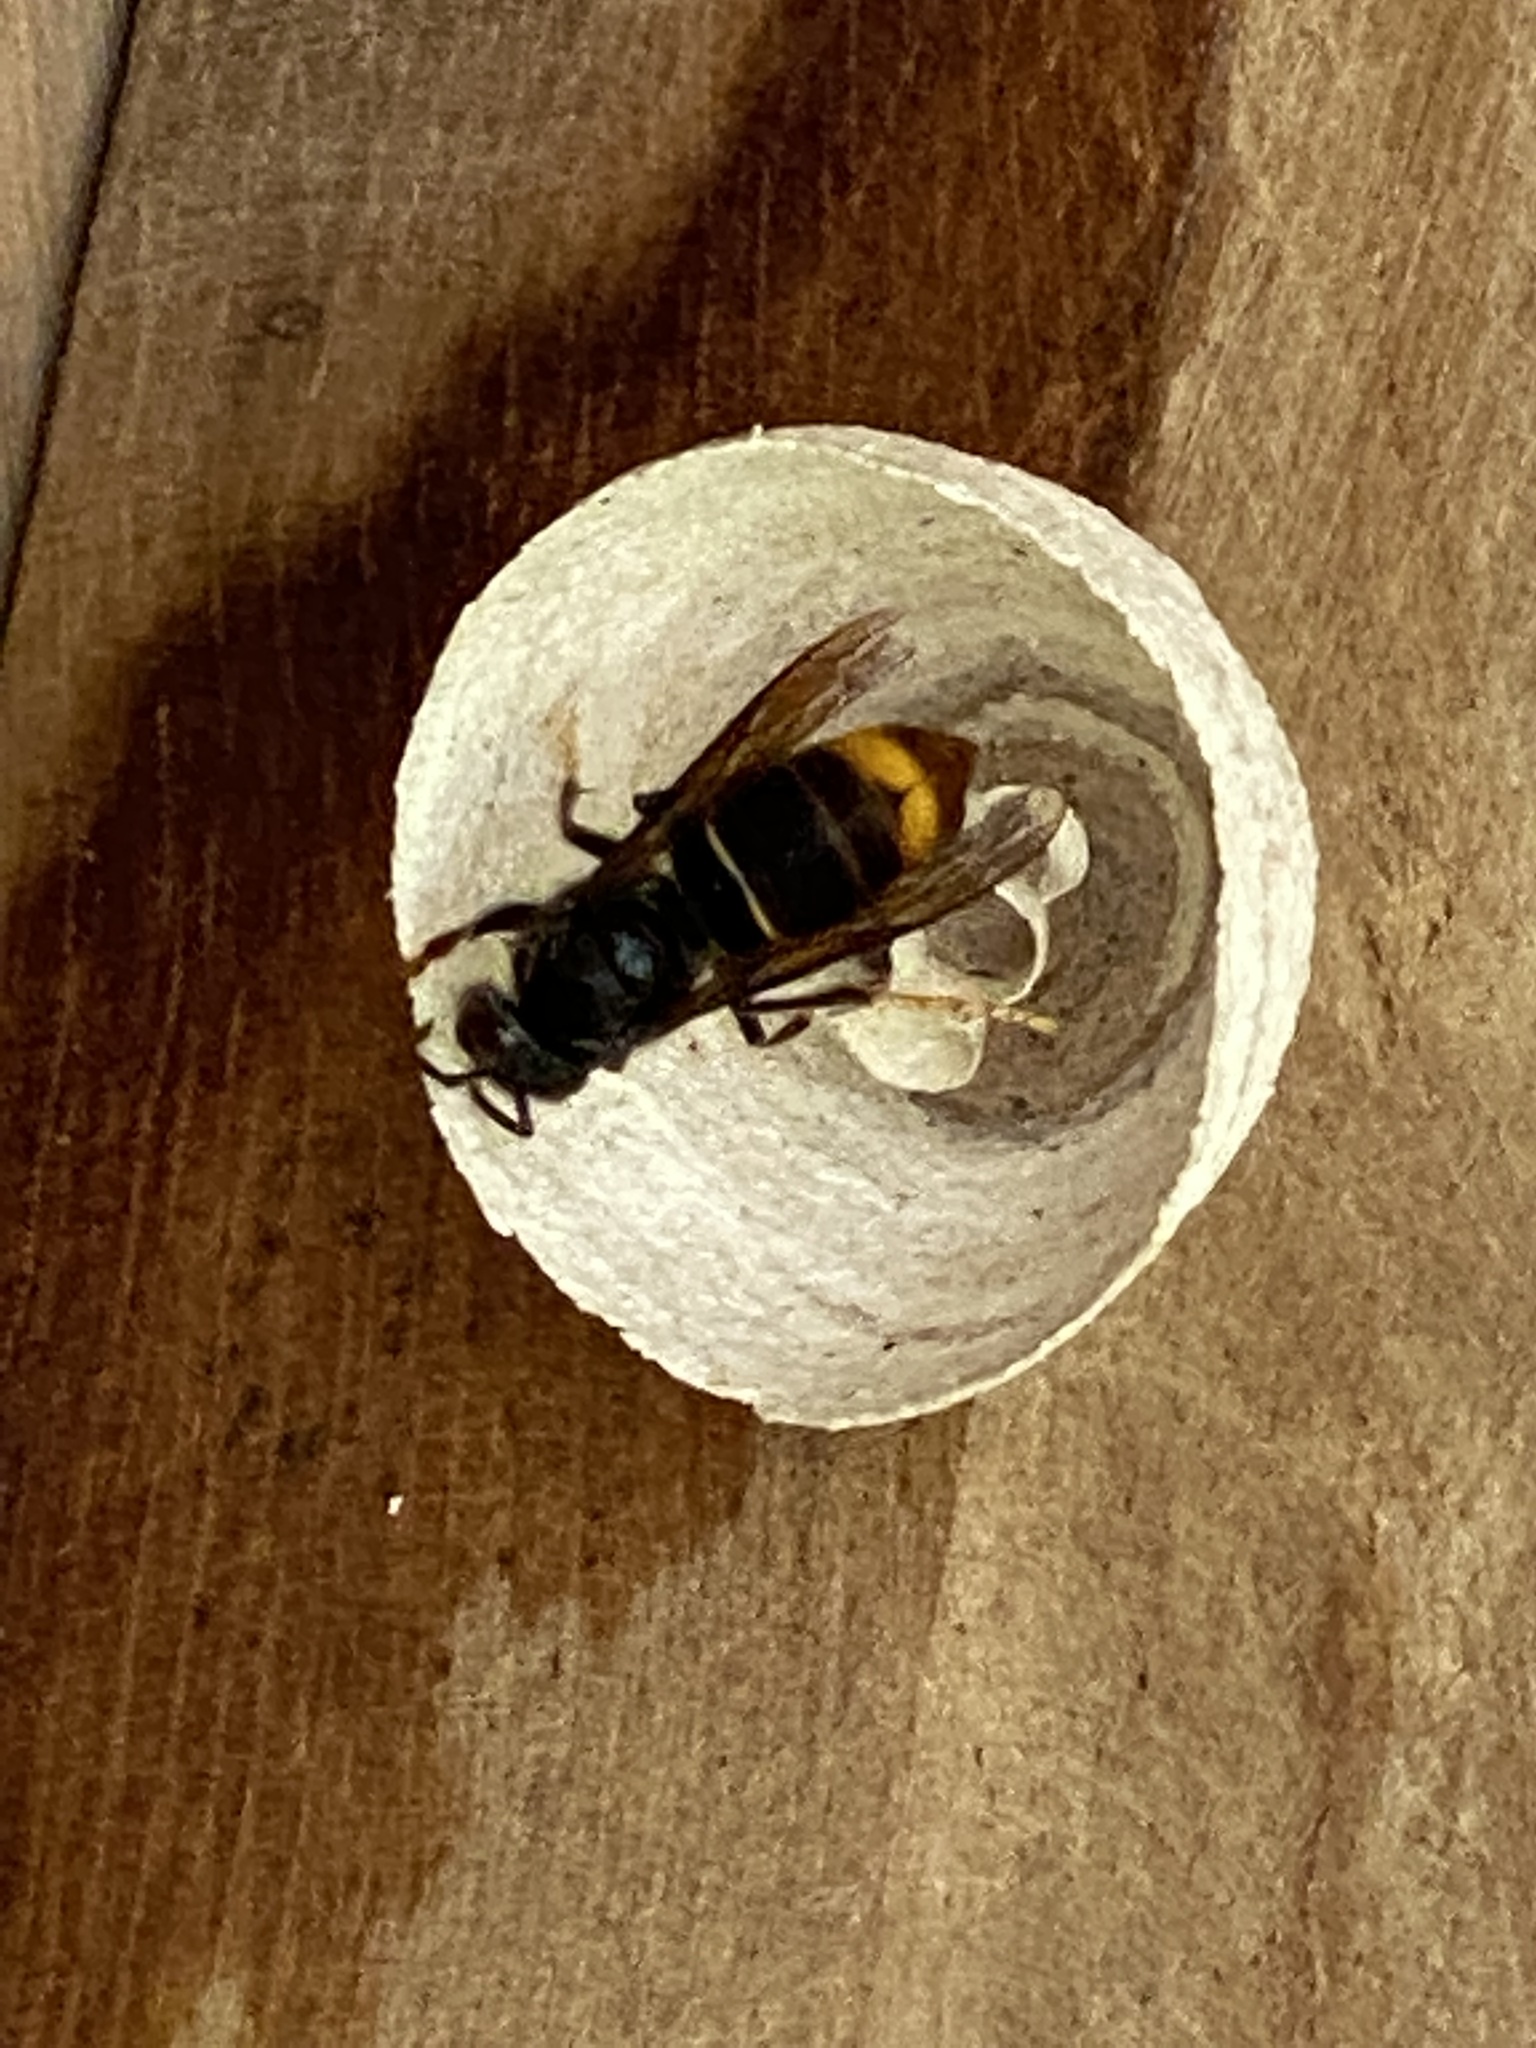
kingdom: Animalia
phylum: Arthropoda
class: Insecta
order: Hymenoptera
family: Vespidae
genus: Vespa
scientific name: Vespa velutina
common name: Asian hornet
